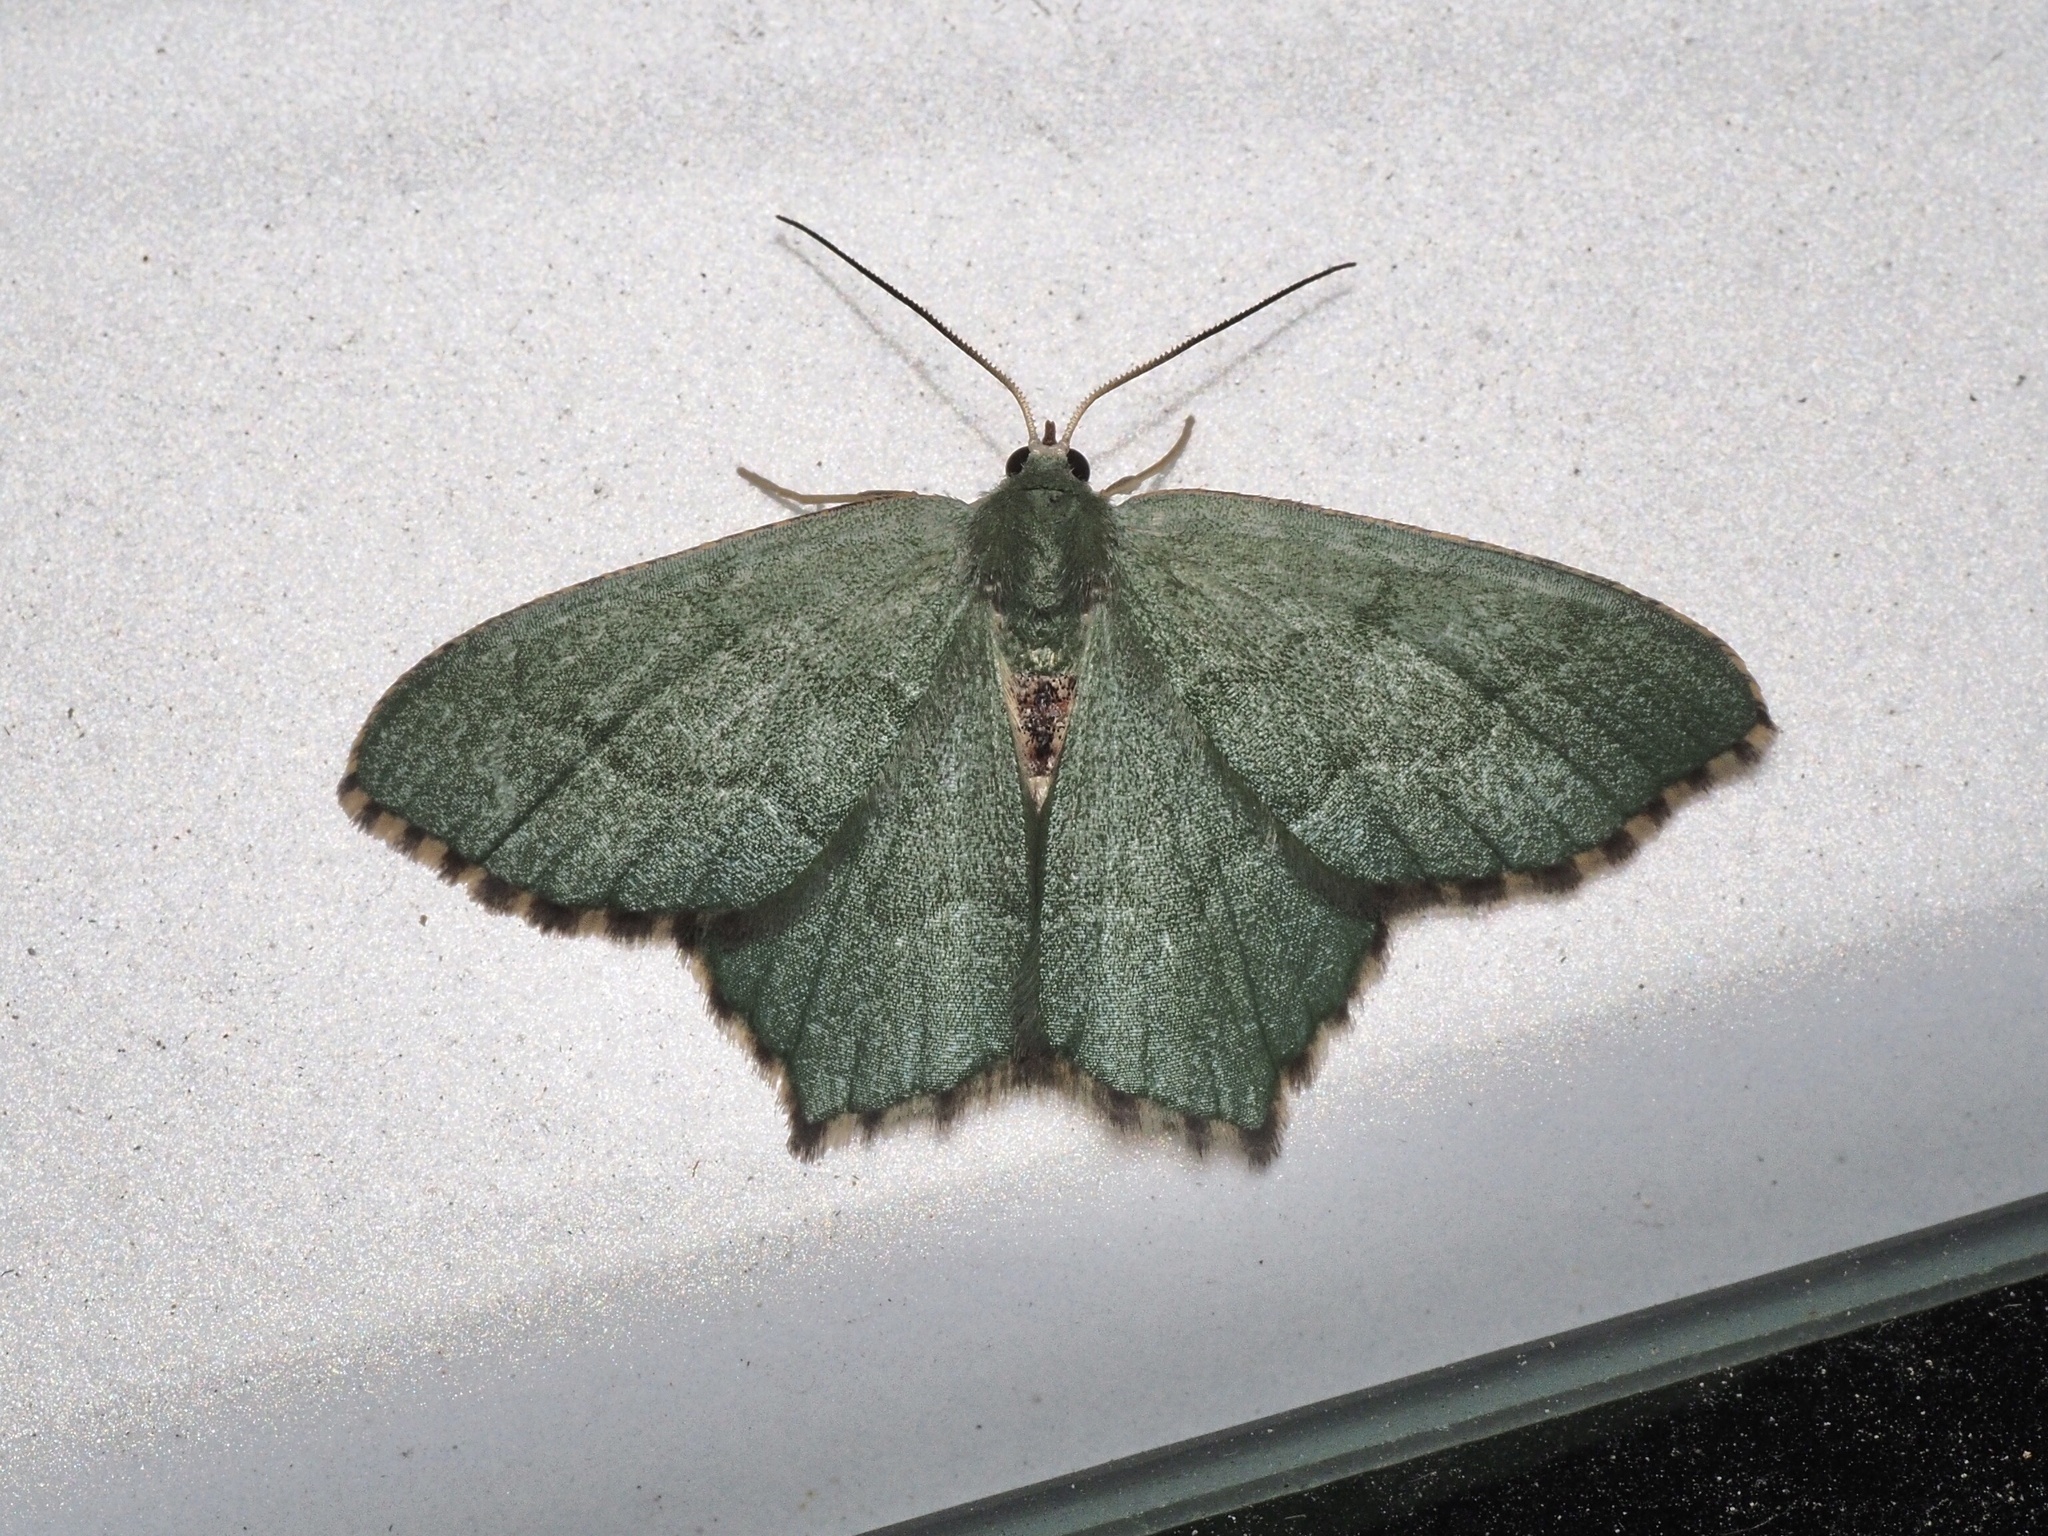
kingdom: Animalia
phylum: Arthropoda
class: Insecta
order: Lepidoptera
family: Geometridae
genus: Hemithea
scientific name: Hemithea aestivaria
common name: Common emerald
